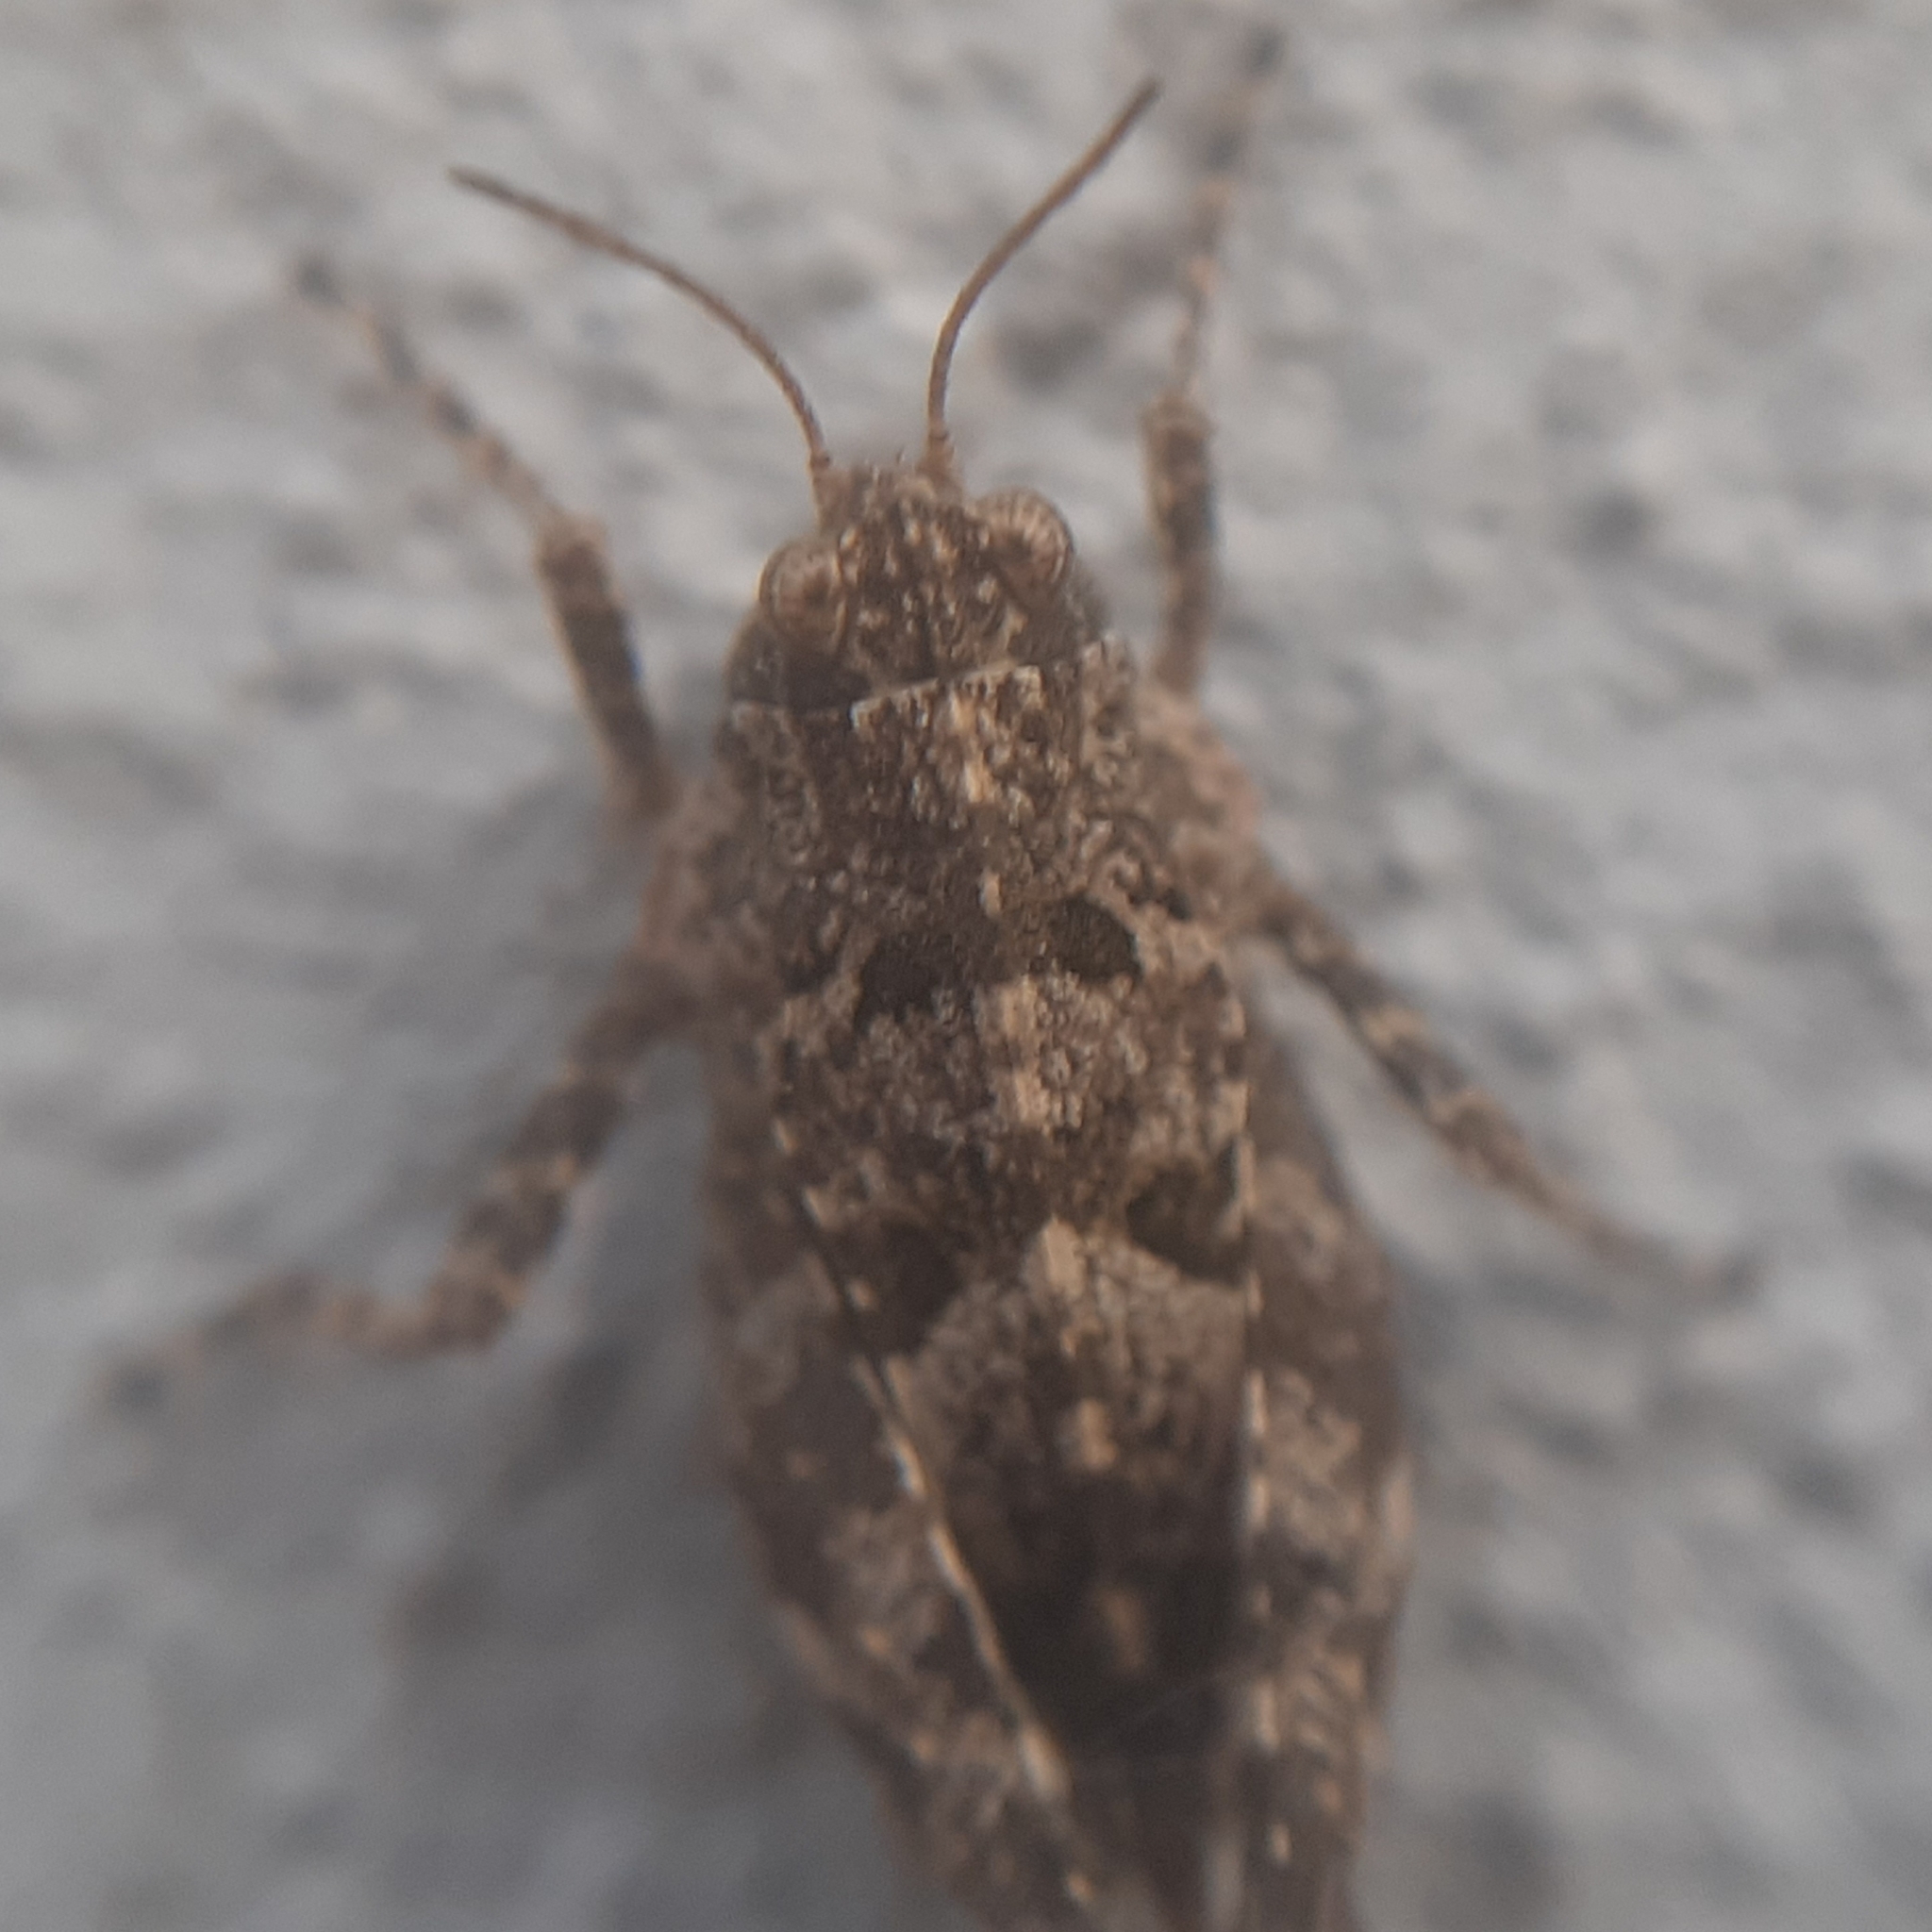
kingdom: Animalia
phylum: Arthropoda
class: Insecta
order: Orthoptera
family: Tetrigidae
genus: Tetrix
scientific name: Tetrix tenuicornis
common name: Long-horned groundhopper
